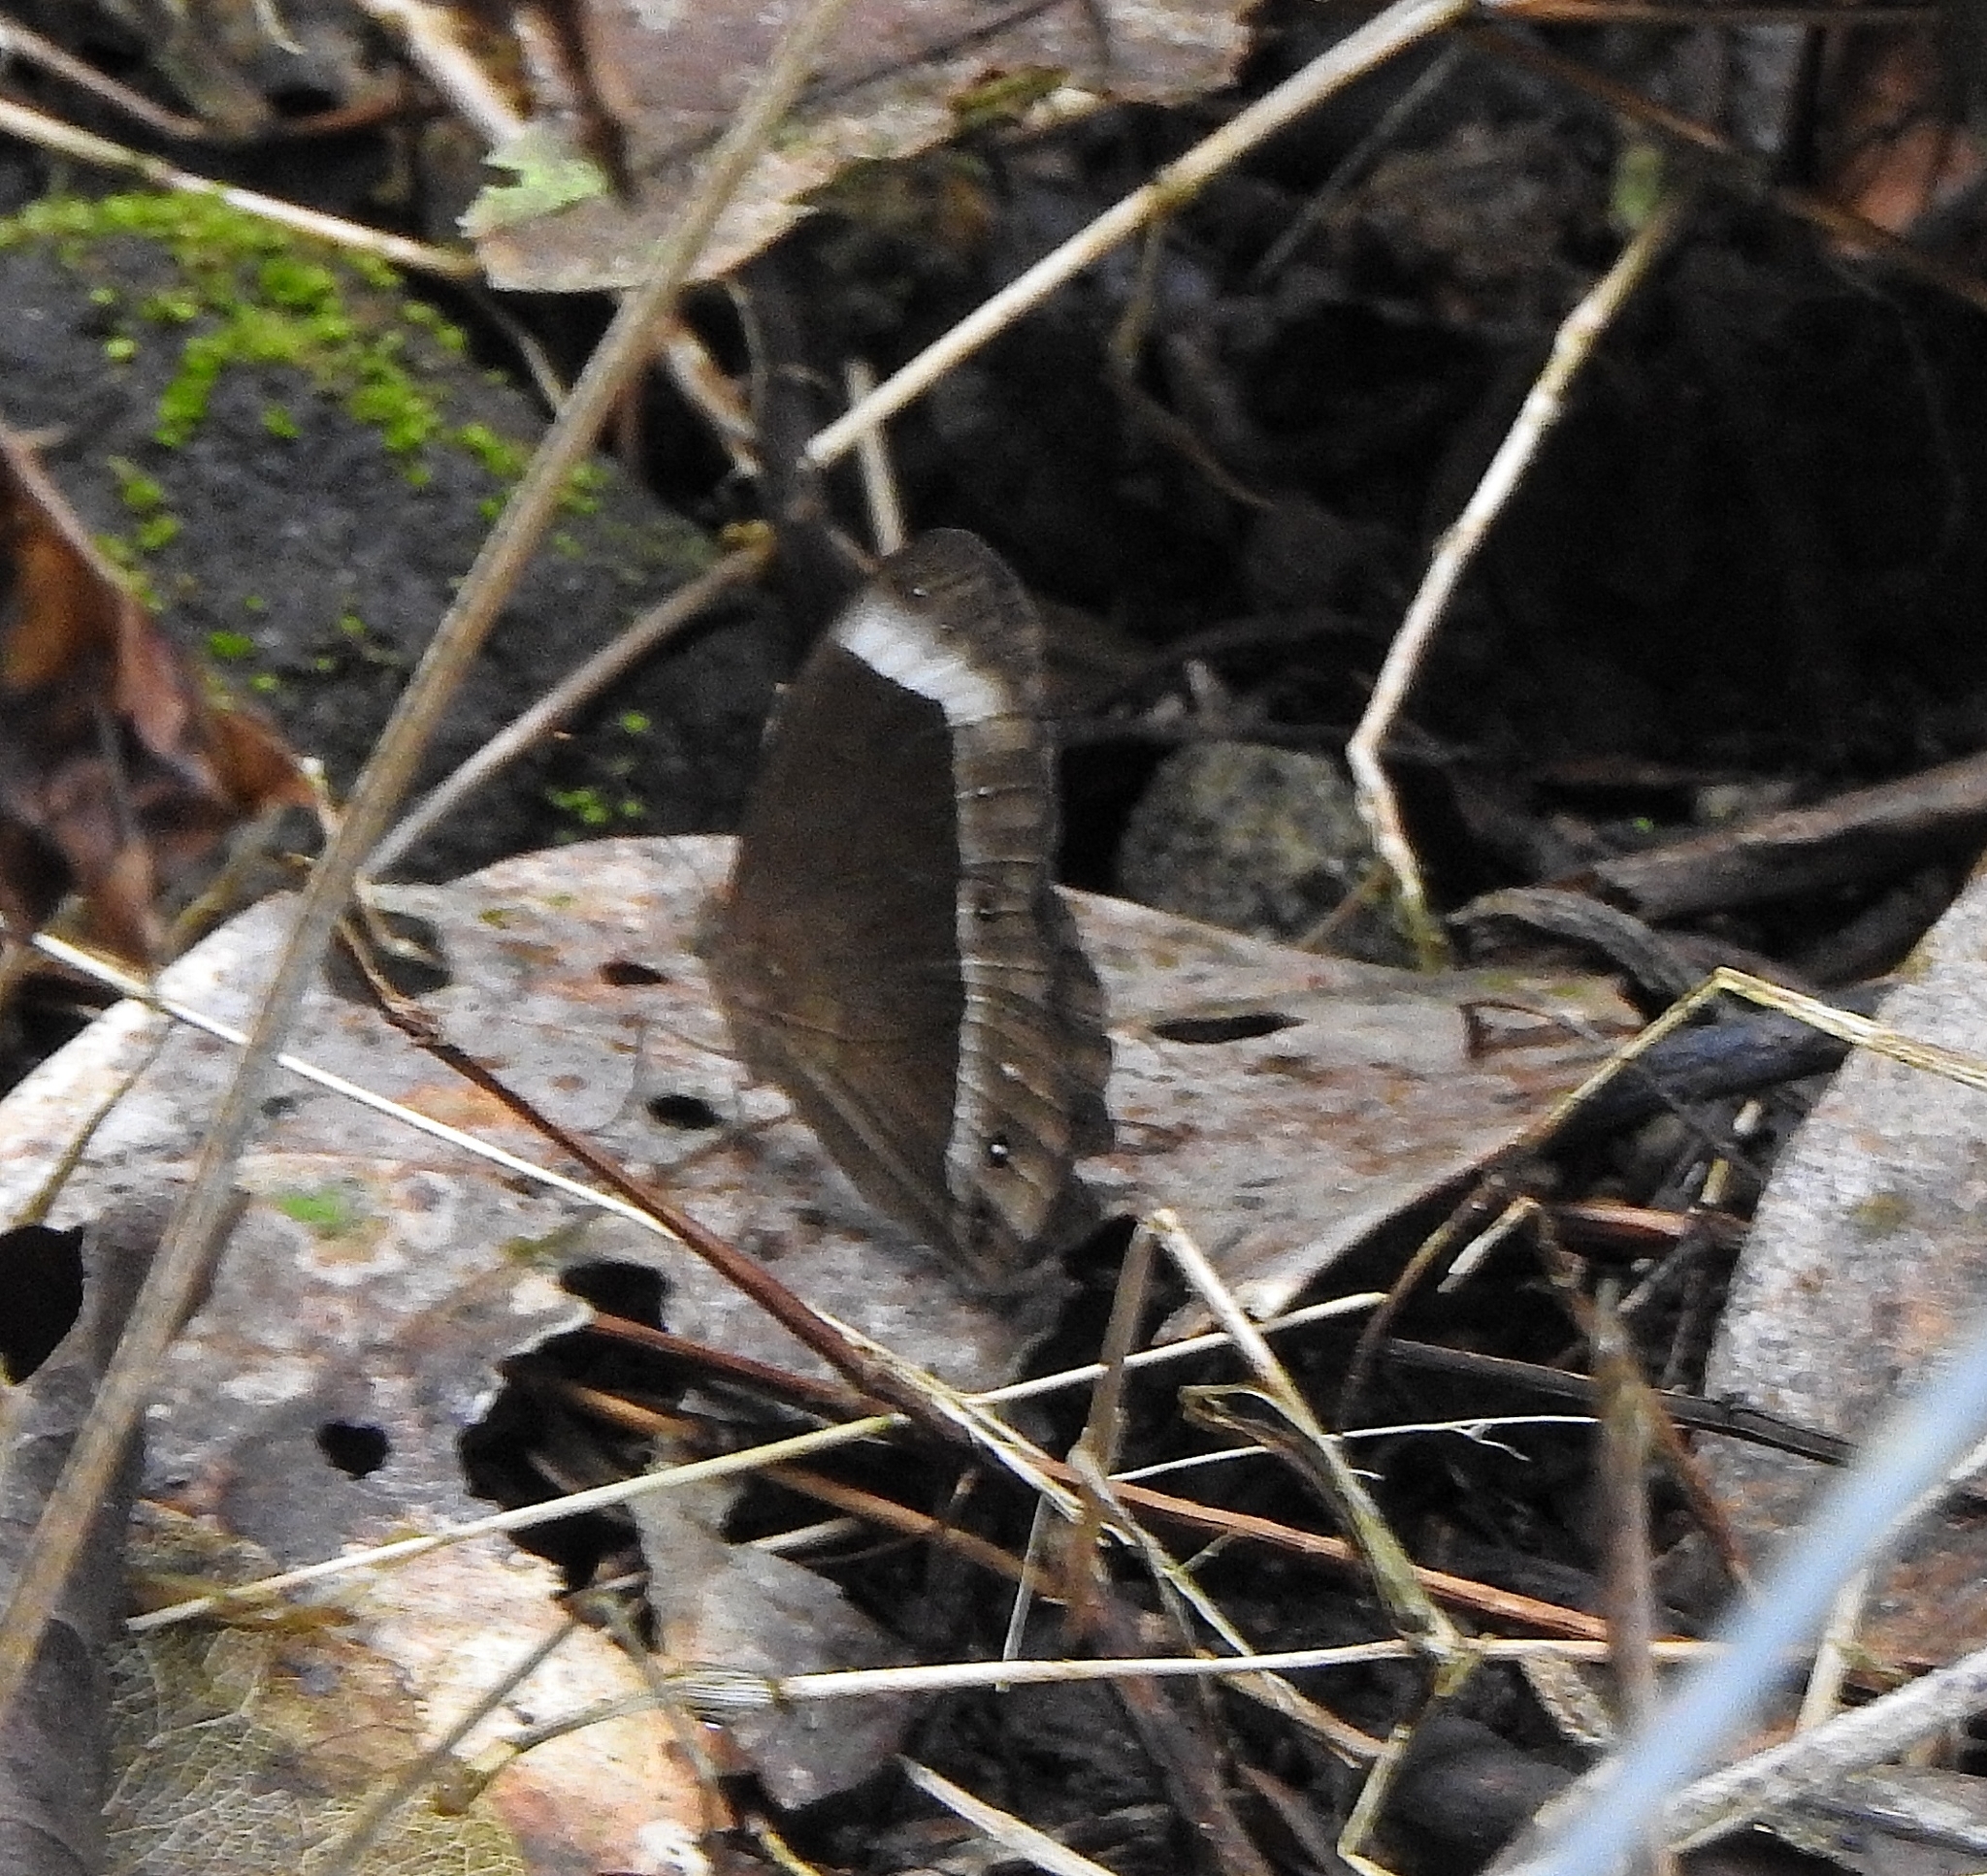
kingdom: Animalia
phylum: Arthropoda
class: Insecta
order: Lepidoptera
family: Nymphalidae
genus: Mycalesis
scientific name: Mycalesis anaxias
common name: White-bar bushbrown
